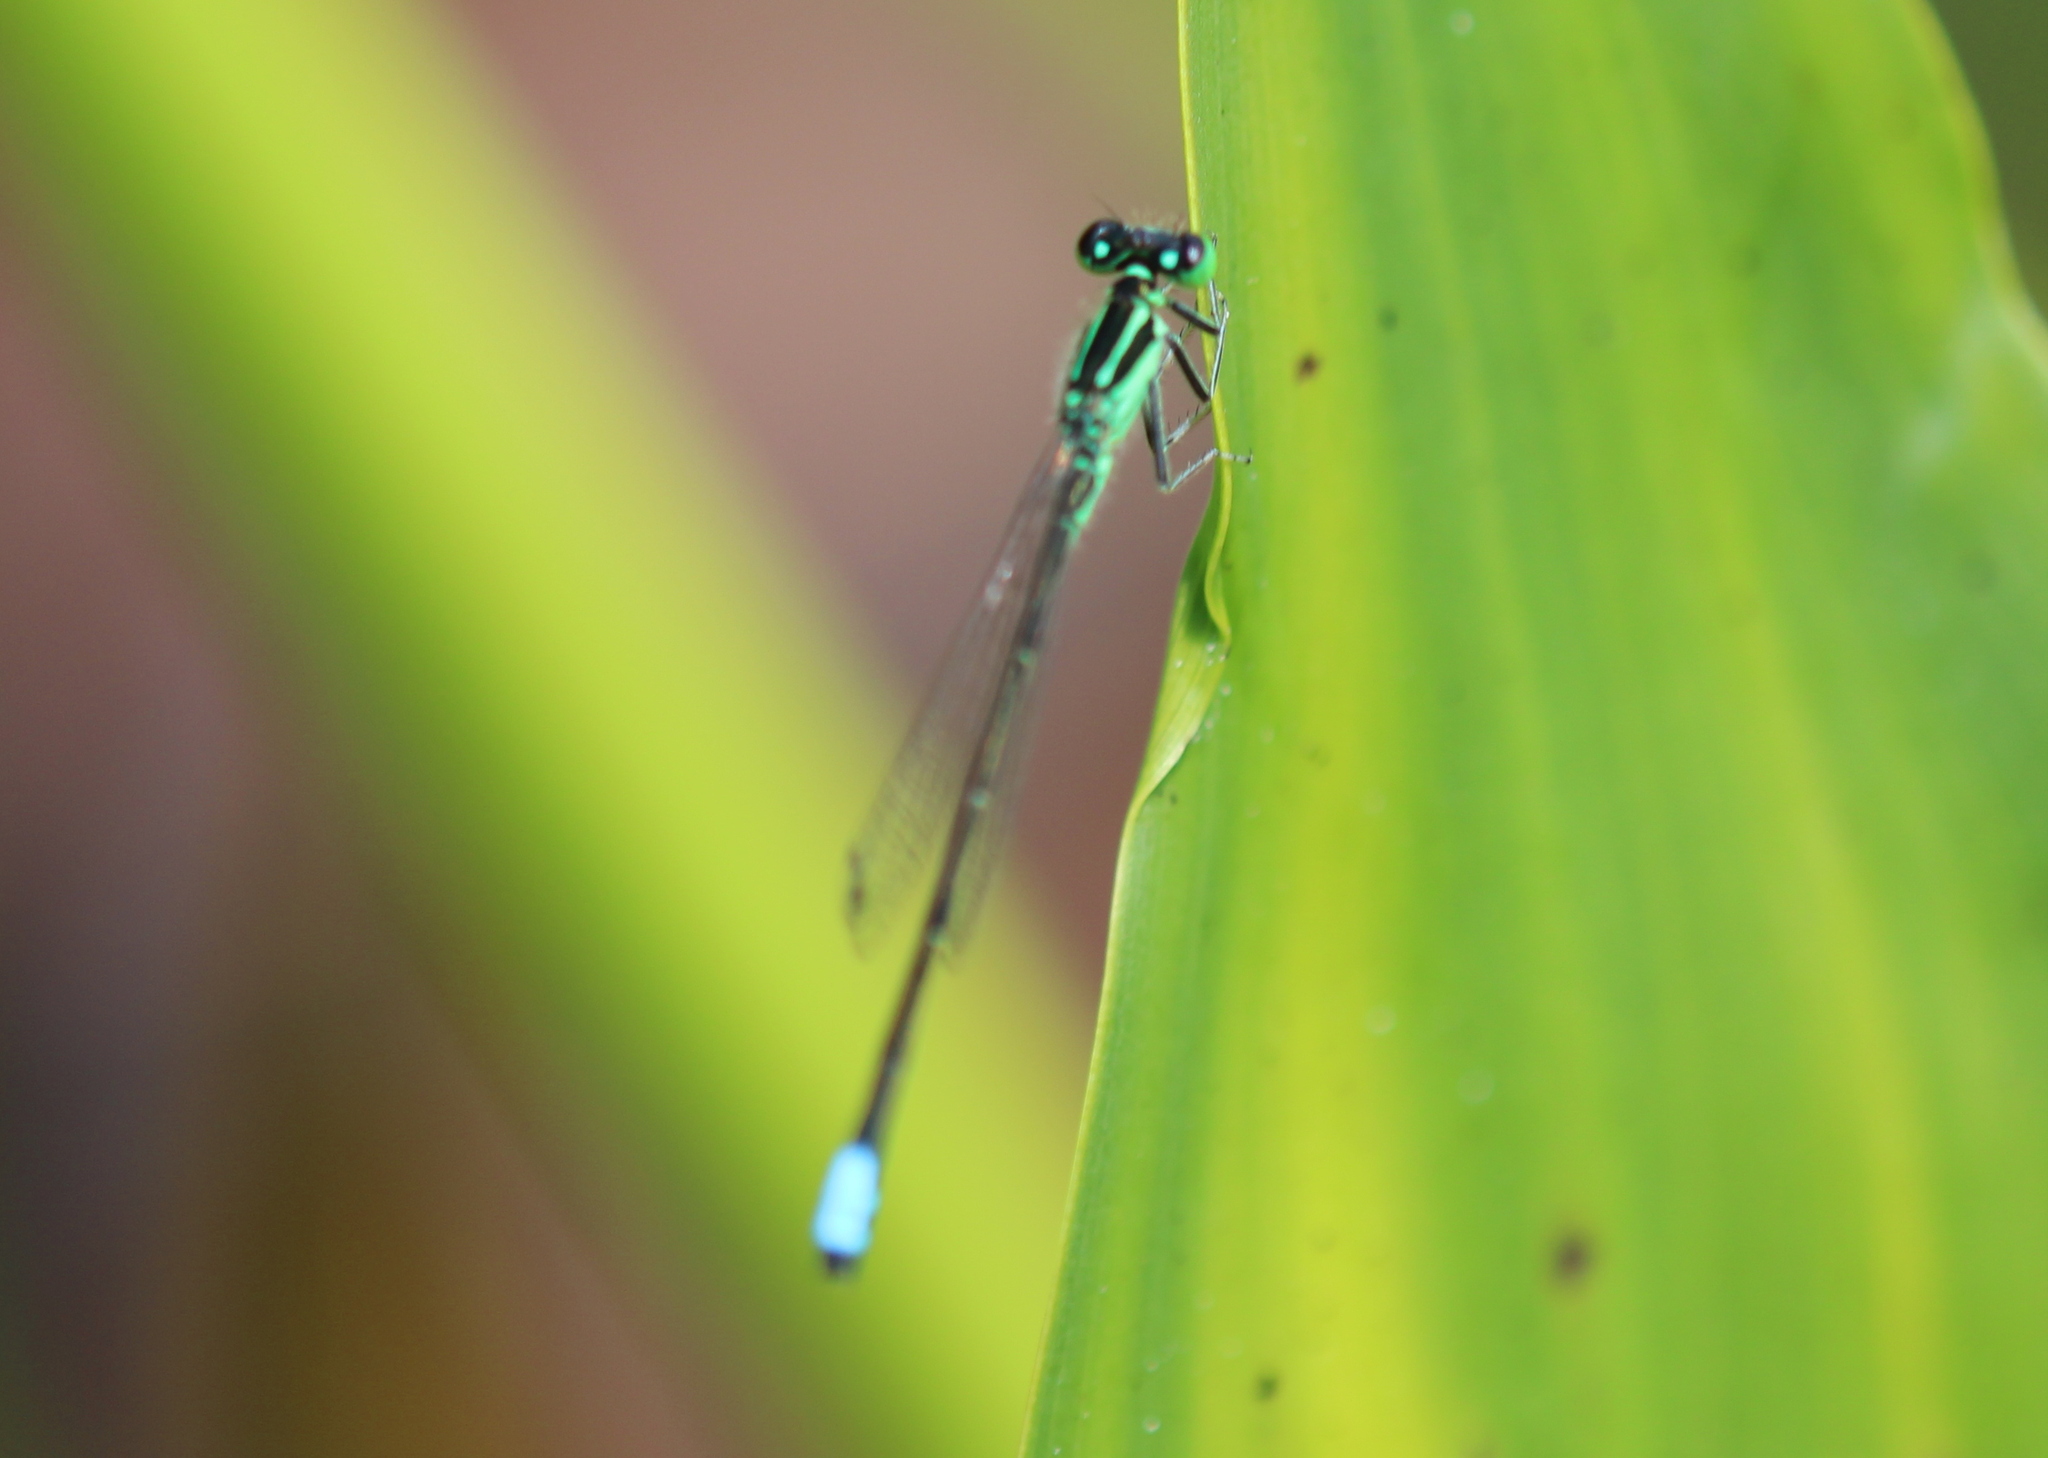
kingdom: Animalia
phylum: Arthropoda
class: Insecta
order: Odonata
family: Coenagrionidae
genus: Ischnura
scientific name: Ischnura verticalis
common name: Eastern forktail
